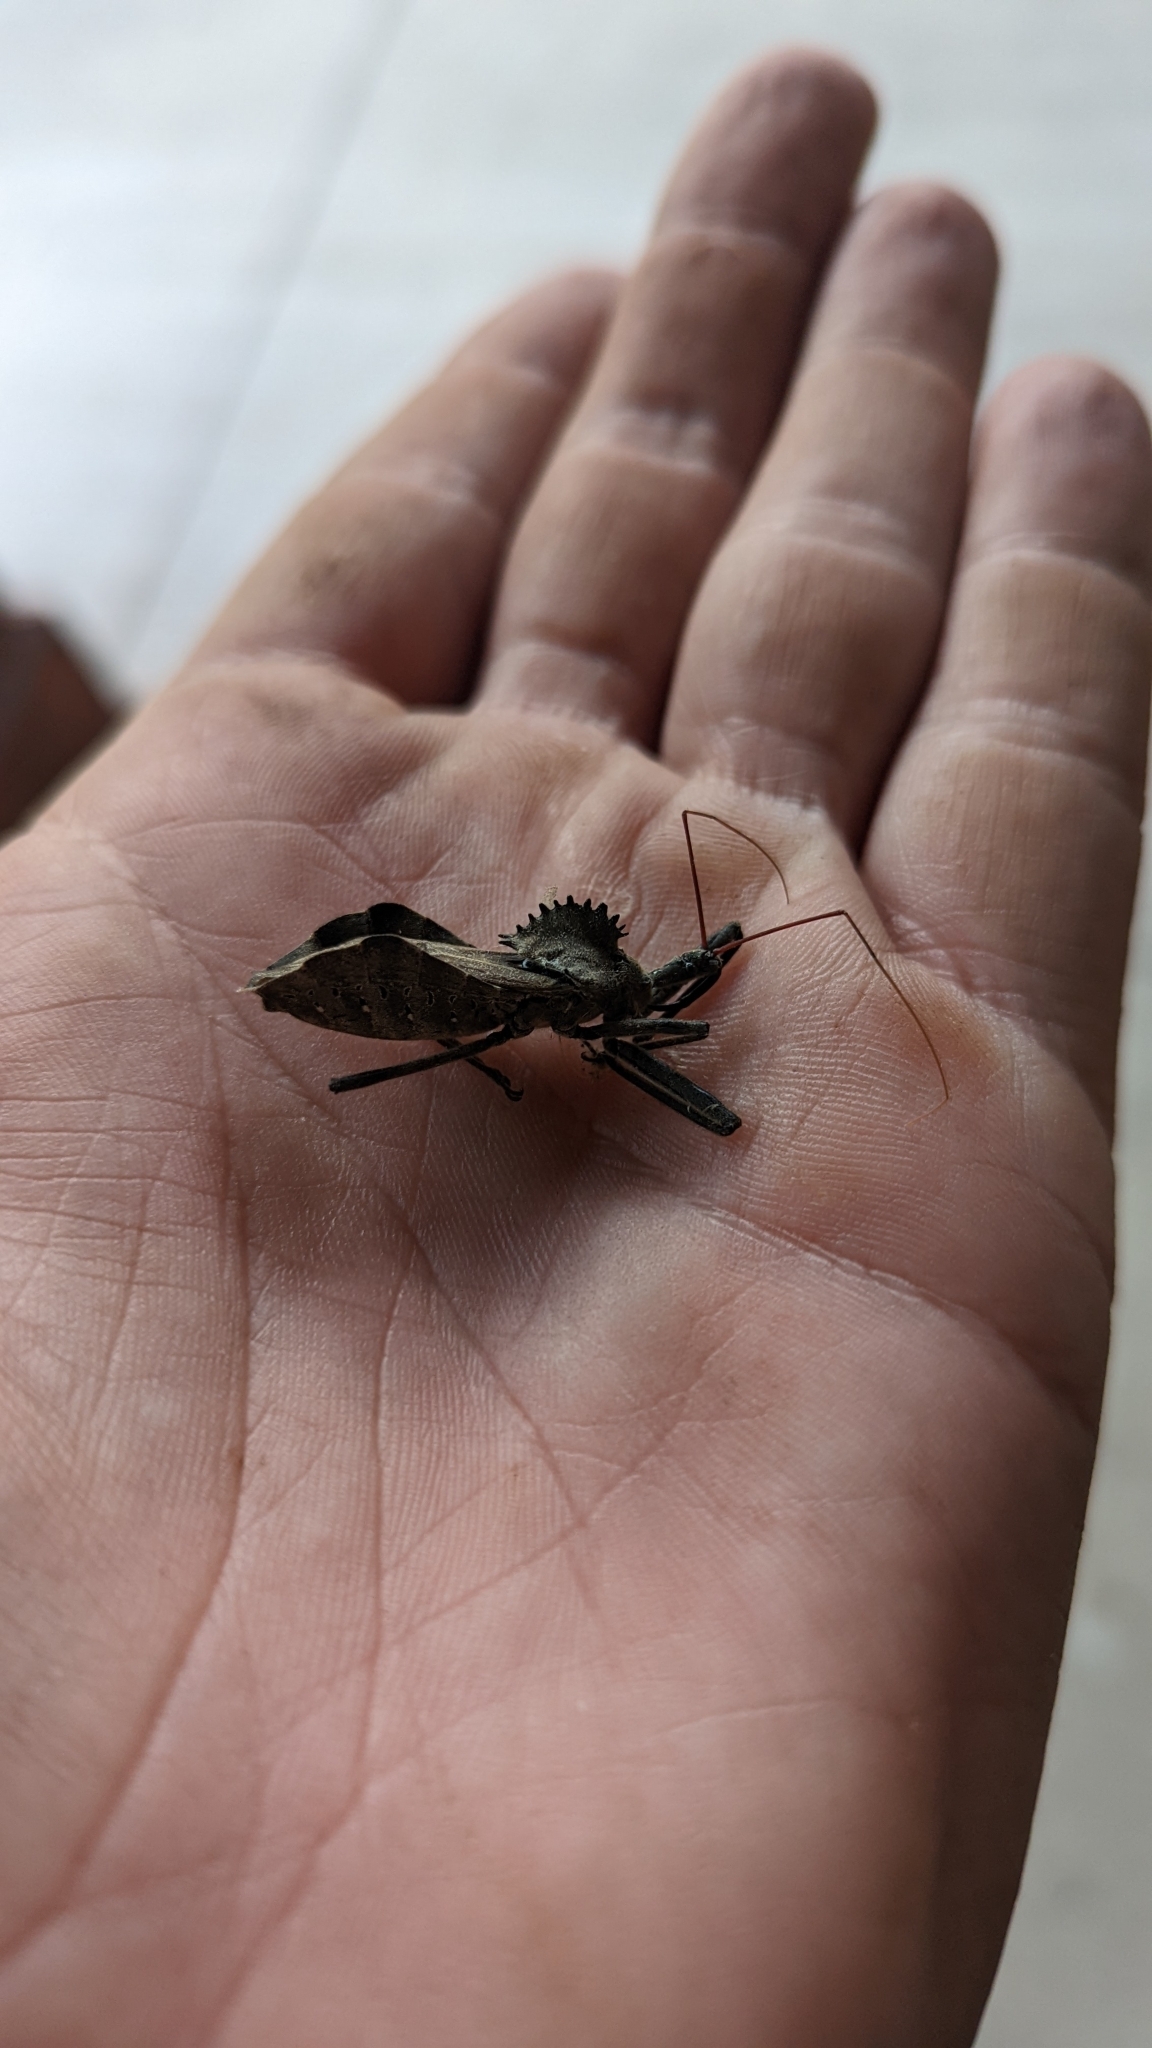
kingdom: Animalia
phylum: Arthropoda
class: Insecta
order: Hemiptera
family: Reduviidae
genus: Arilus
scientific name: Arilus cristatus
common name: North american wheel bug
